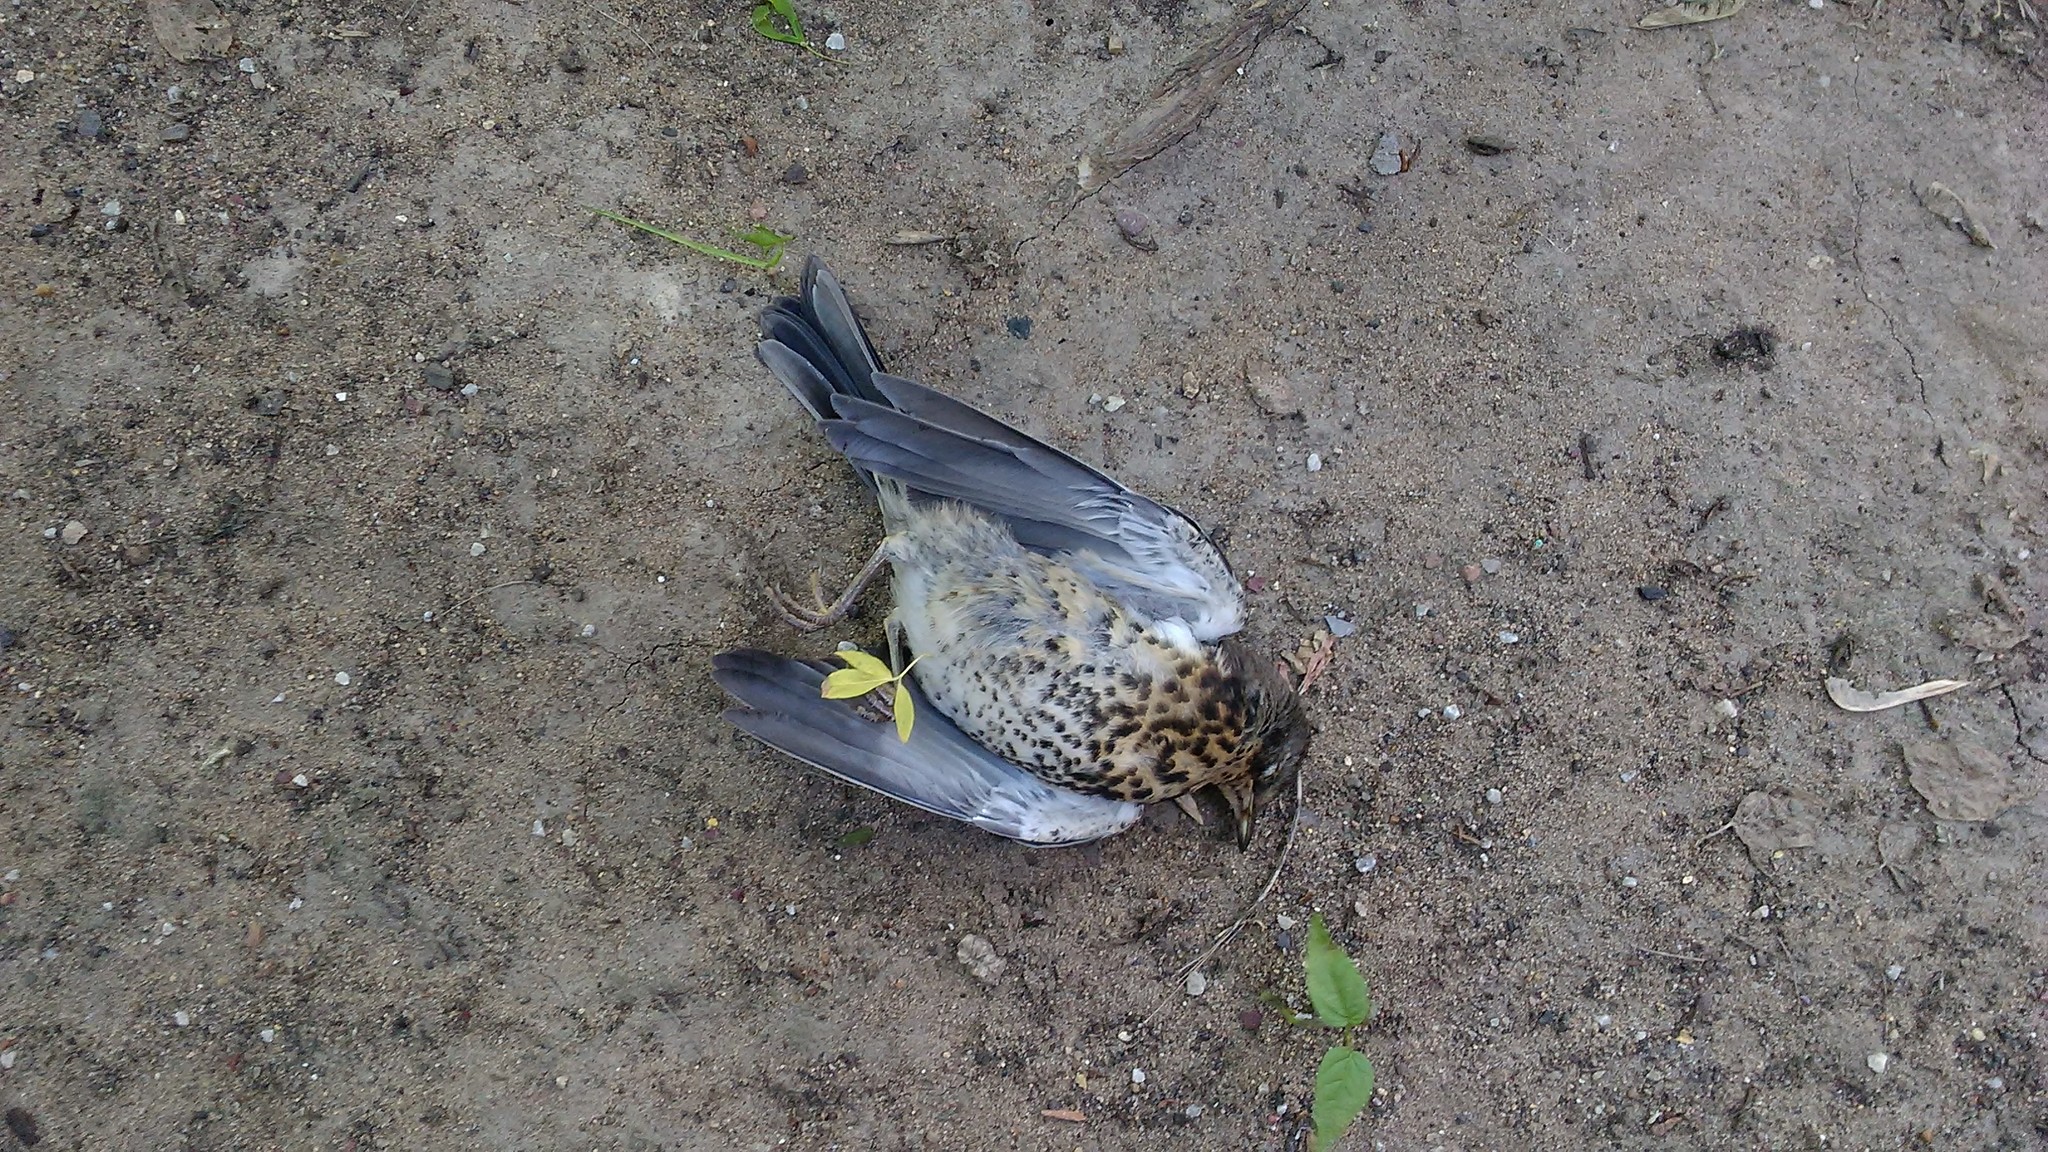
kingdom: Animalia
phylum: Chordata
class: Aves
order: Passeriformes
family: Turdidae
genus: Turdus
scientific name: Turdus pilaris
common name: Fieldfare
